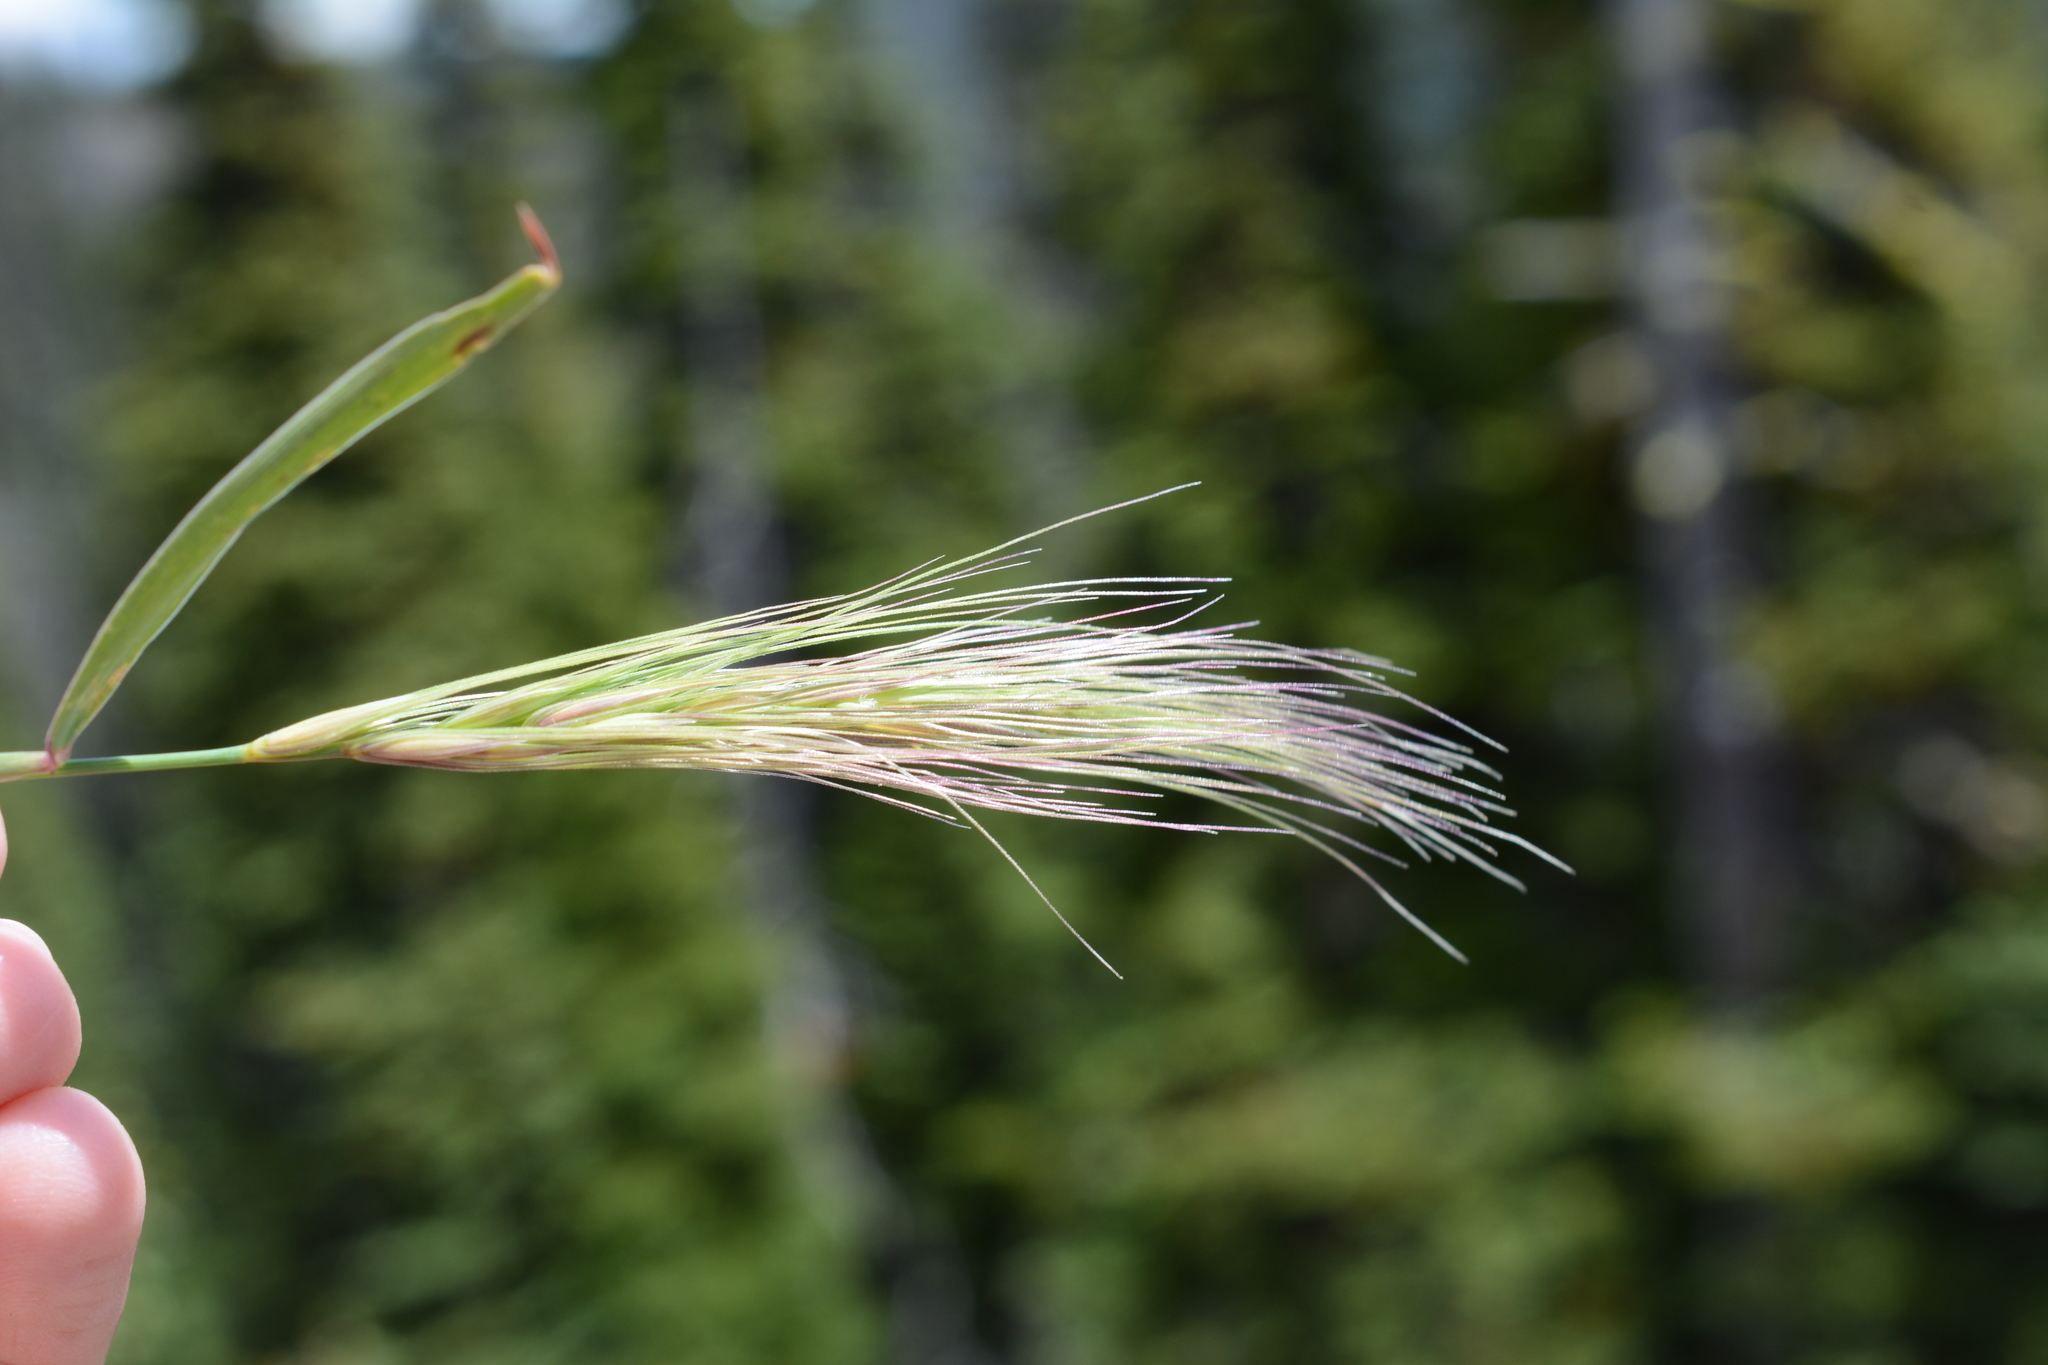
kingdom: Plantae
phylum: Tracheophyta
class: Liliopsida
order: Poales
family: Poaceae
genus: Hordeum
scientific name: Hordeum jubatum
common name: Foxtail barley
